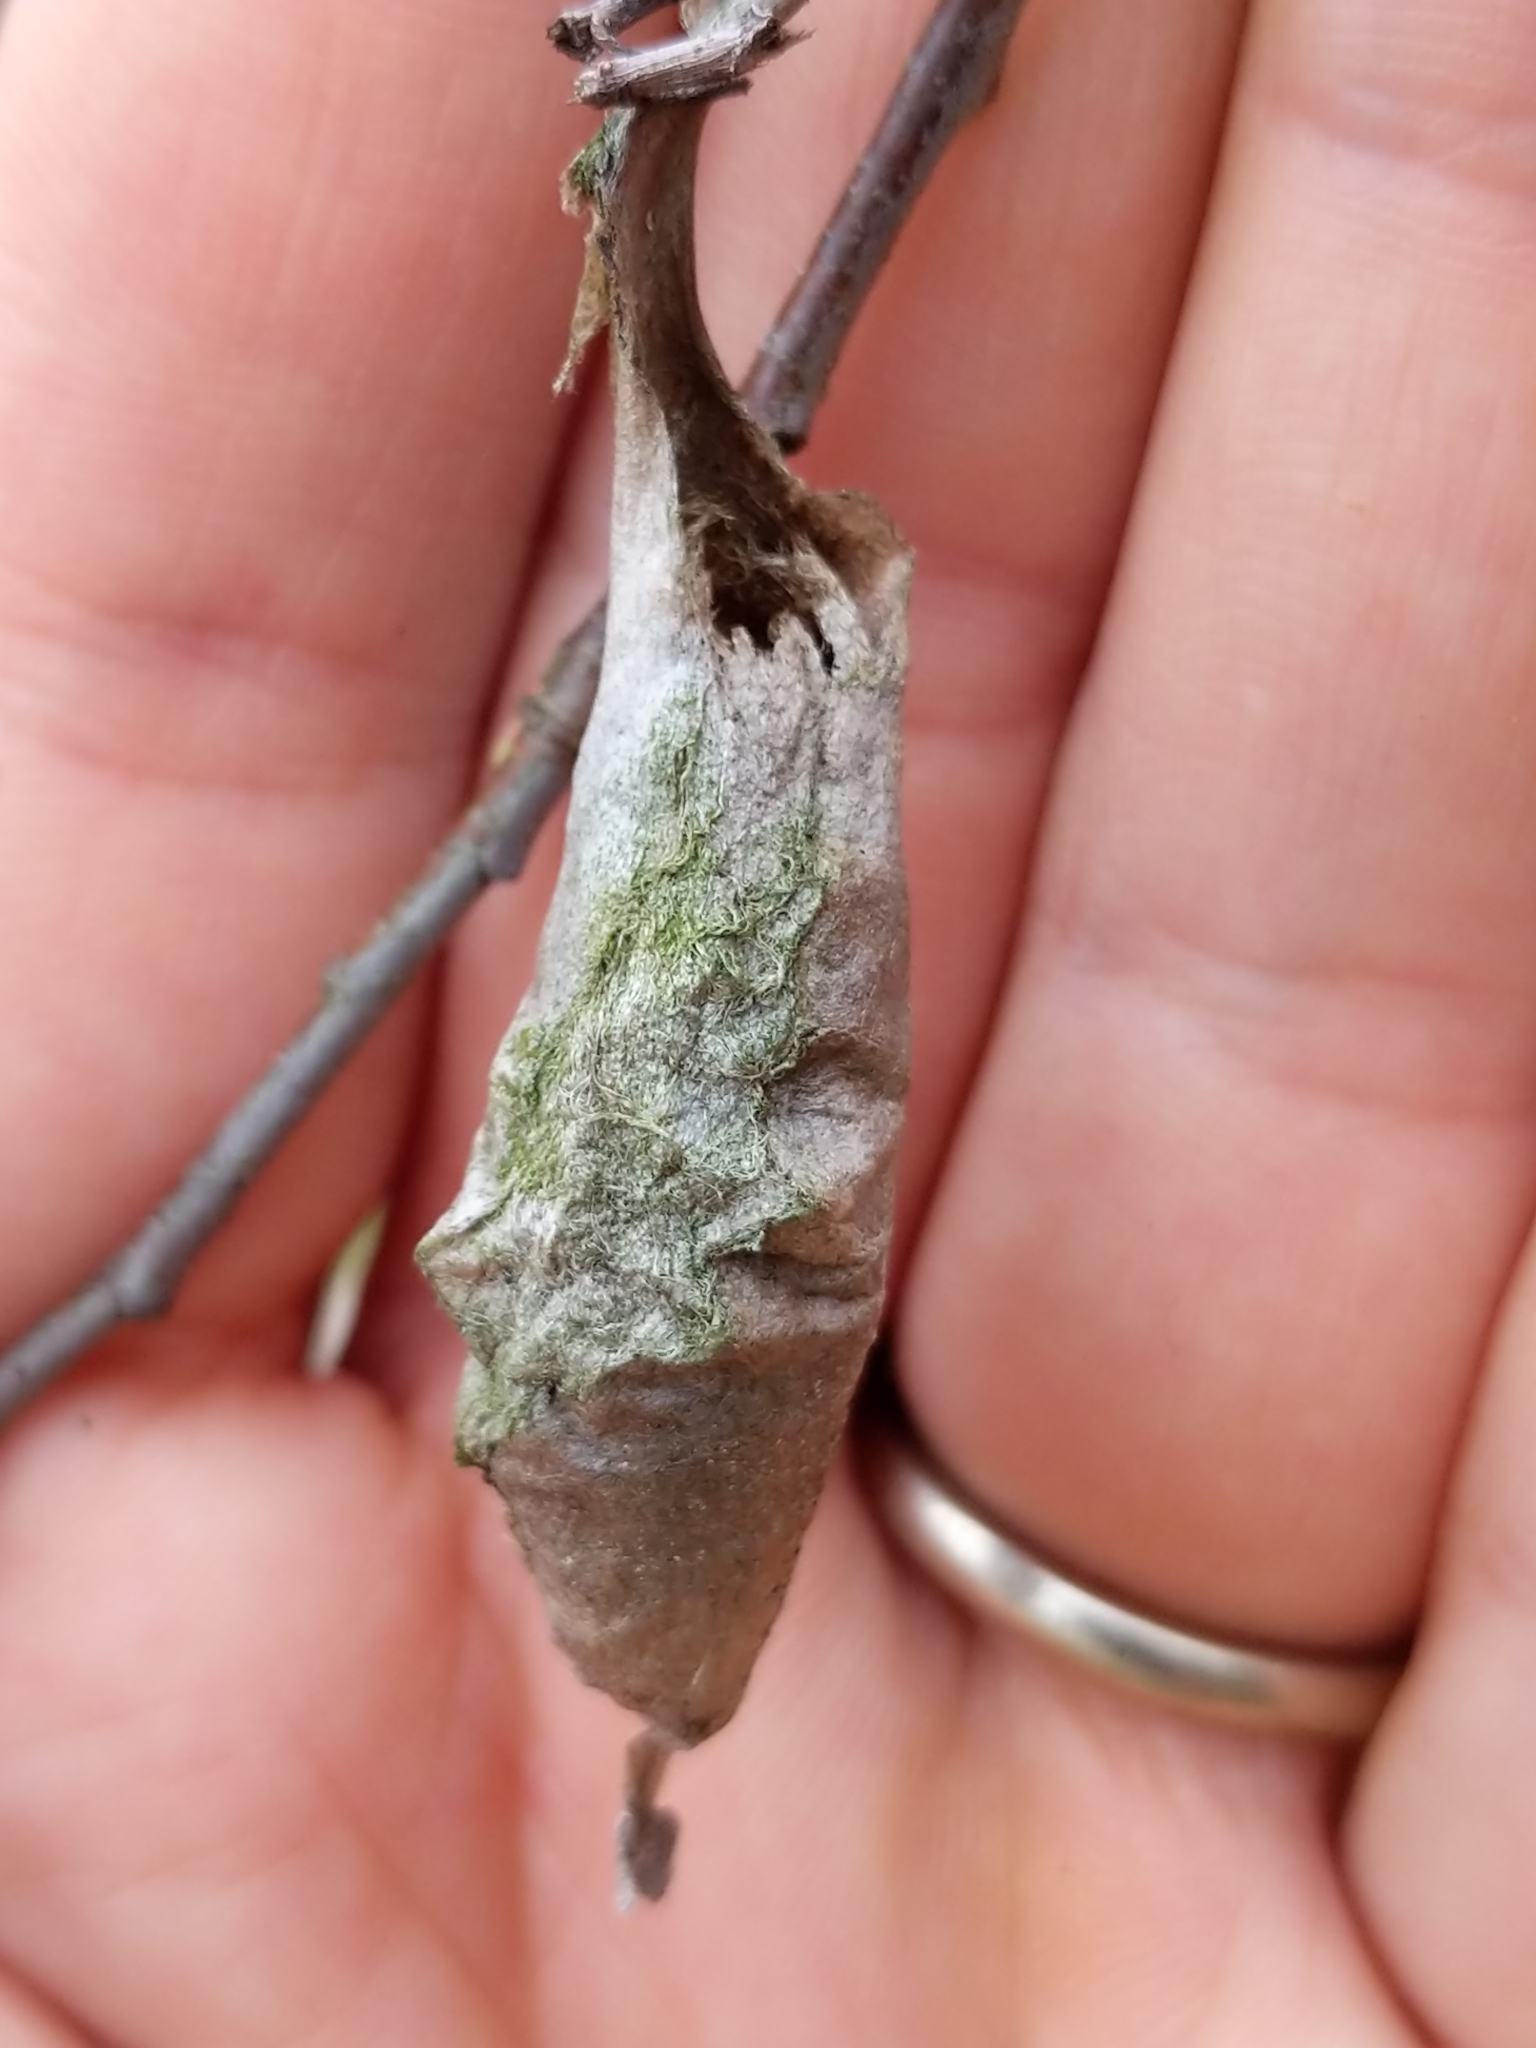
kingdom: Animalia
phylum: Arthropoda
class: Insecta
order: Lepidoptera
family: Saturniidae
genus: Callosamia
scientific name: Callosamia promethea
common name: Promethea silkmoth
